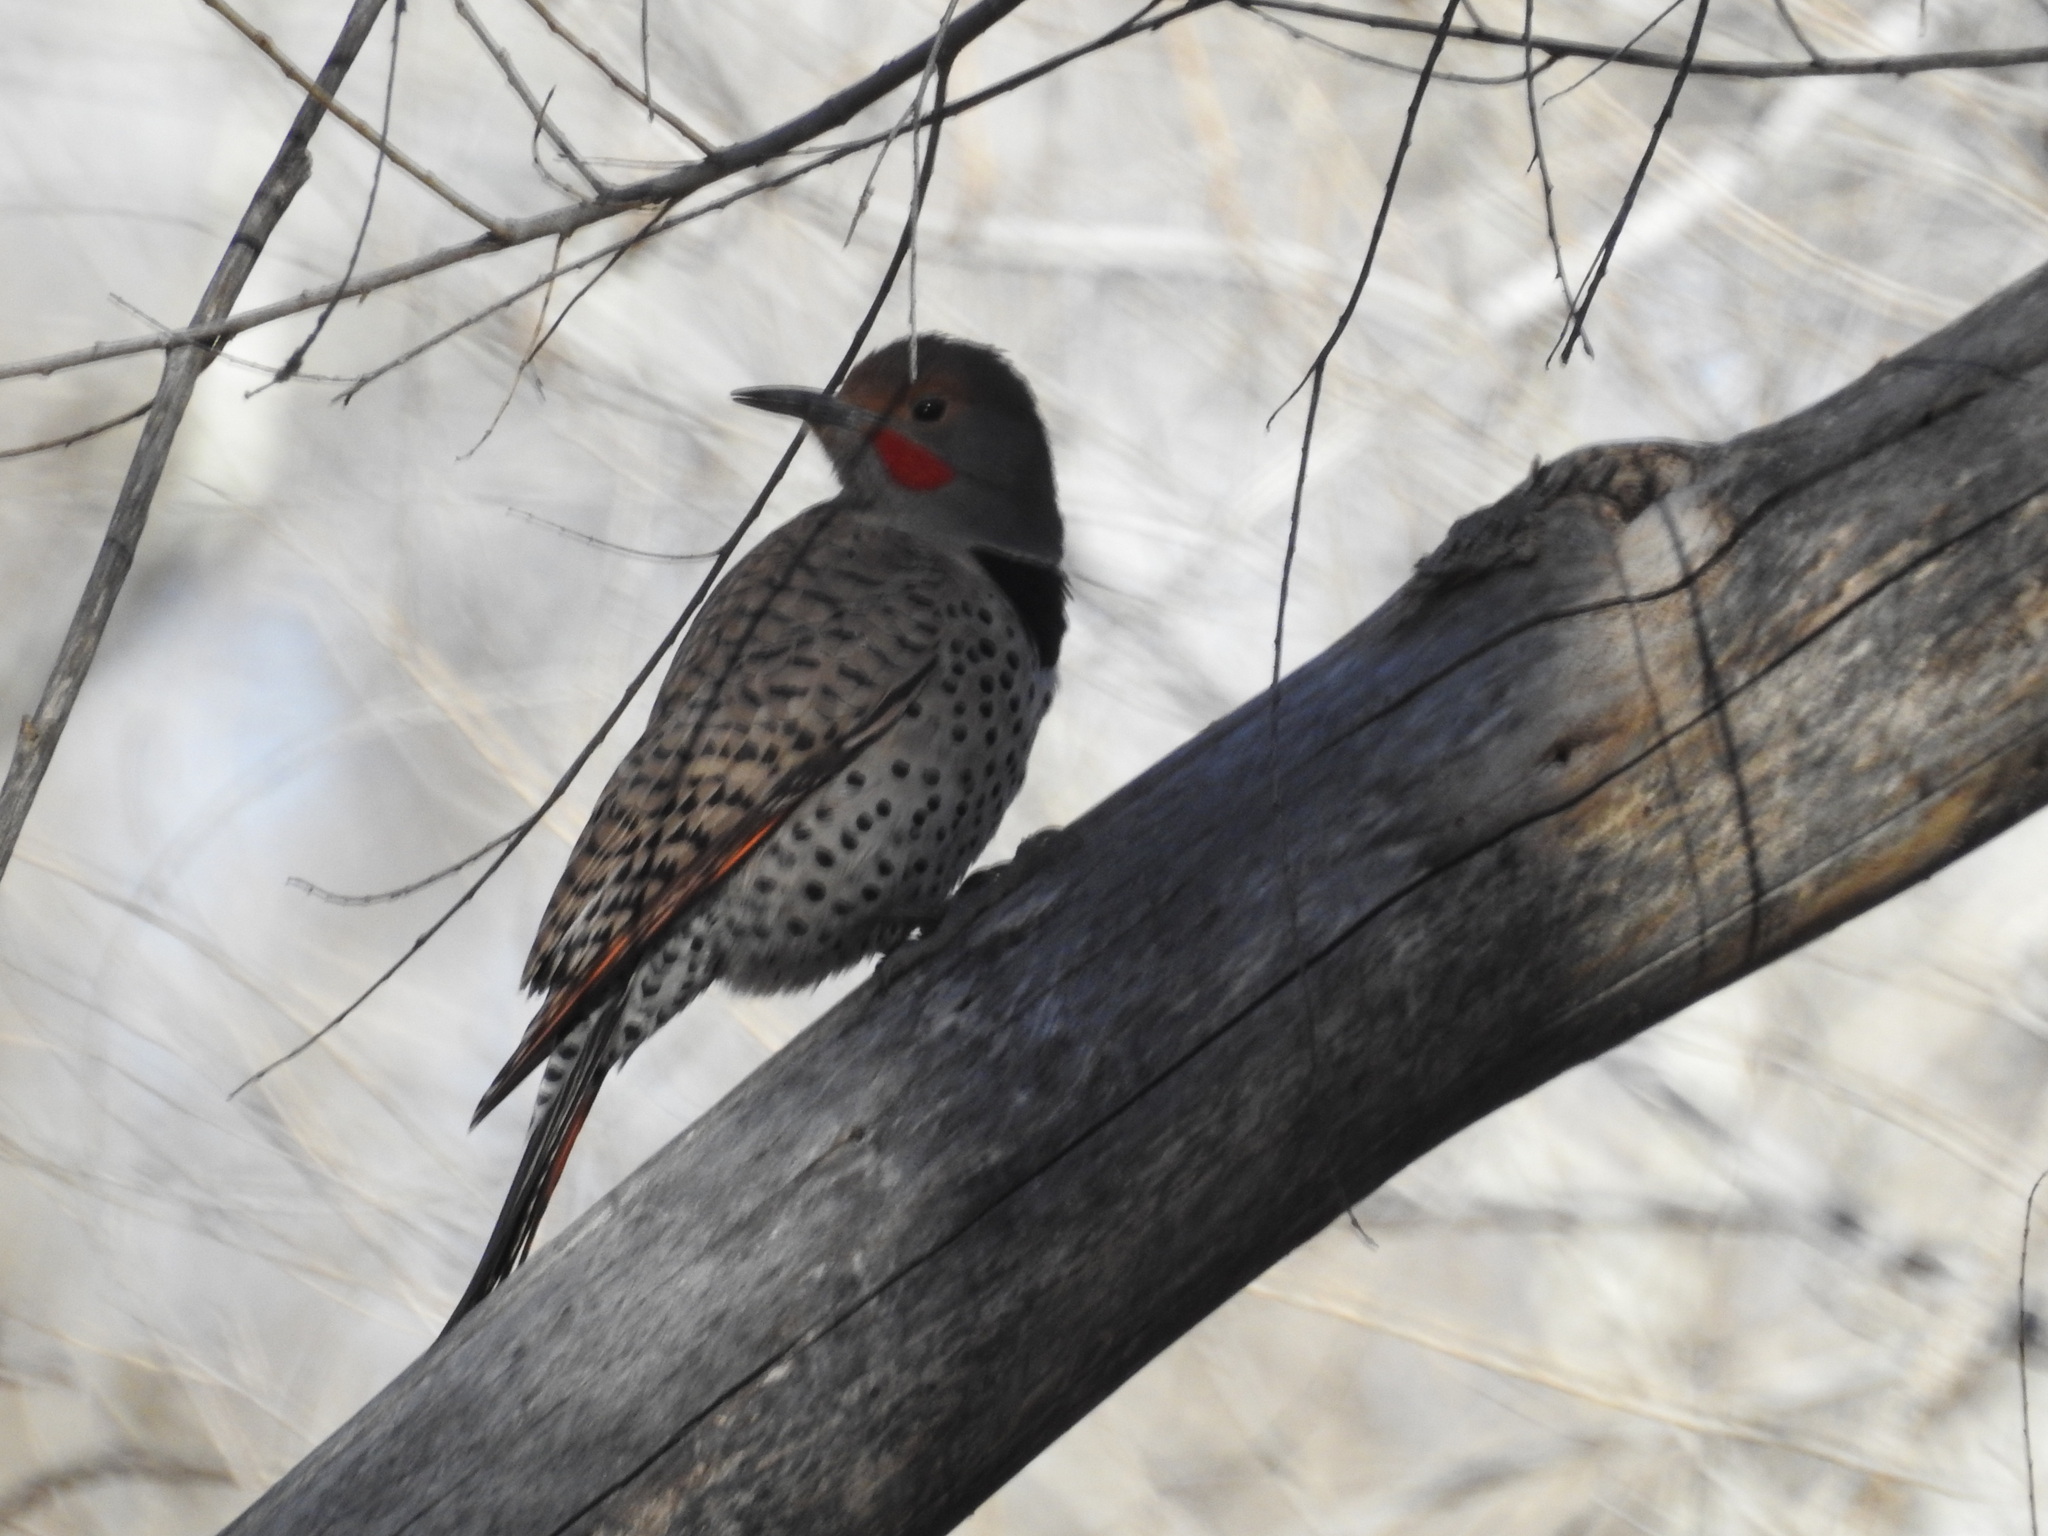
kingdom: Animalia
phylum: Chordata
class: Aves
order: Piciformes
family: Picidae
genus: Colaptes
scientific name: Colaptes auratus
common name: Northern flicker
